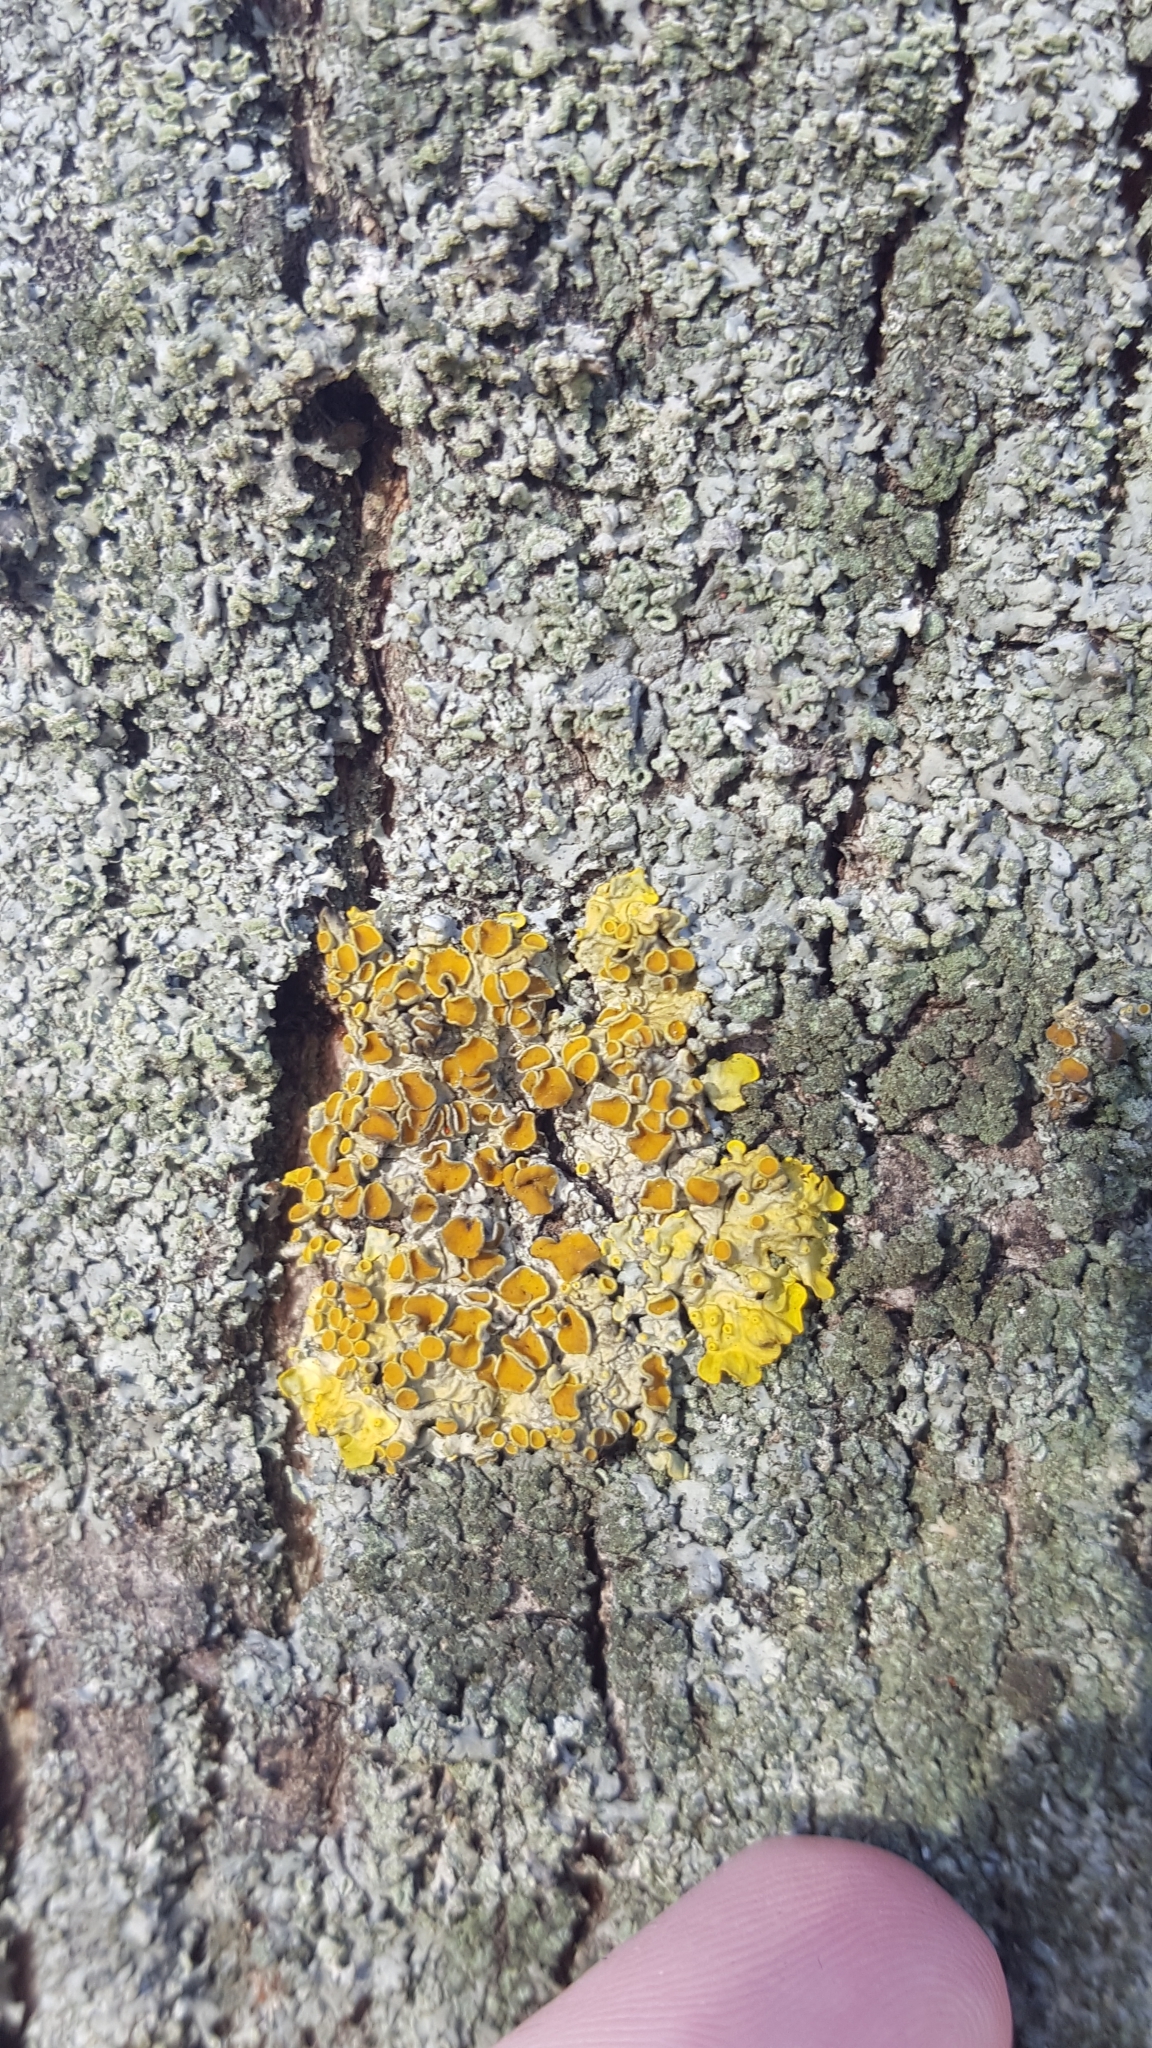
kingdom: Fungi
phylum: Ascomycota
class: Lecanoromycetes
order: Teloschistales
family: Teloschistaceae
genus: Xanthoria
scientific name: Xanthoria parietina
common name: Common orange lichen
